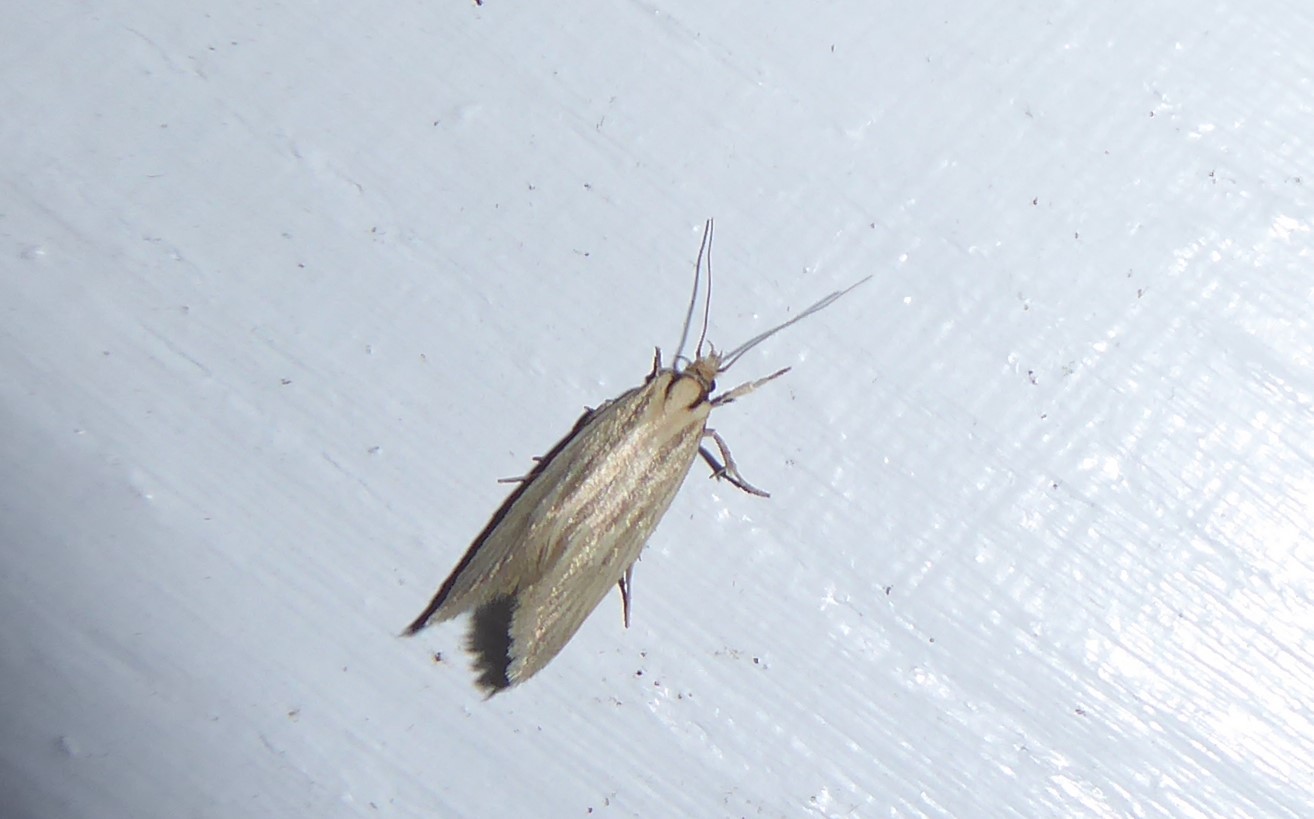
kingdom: Animalia
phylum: Arthropoda
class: Insecta
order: Lepidoptera
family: Oecophoridae
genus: Tingena
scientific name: Tingena chloradelpha
